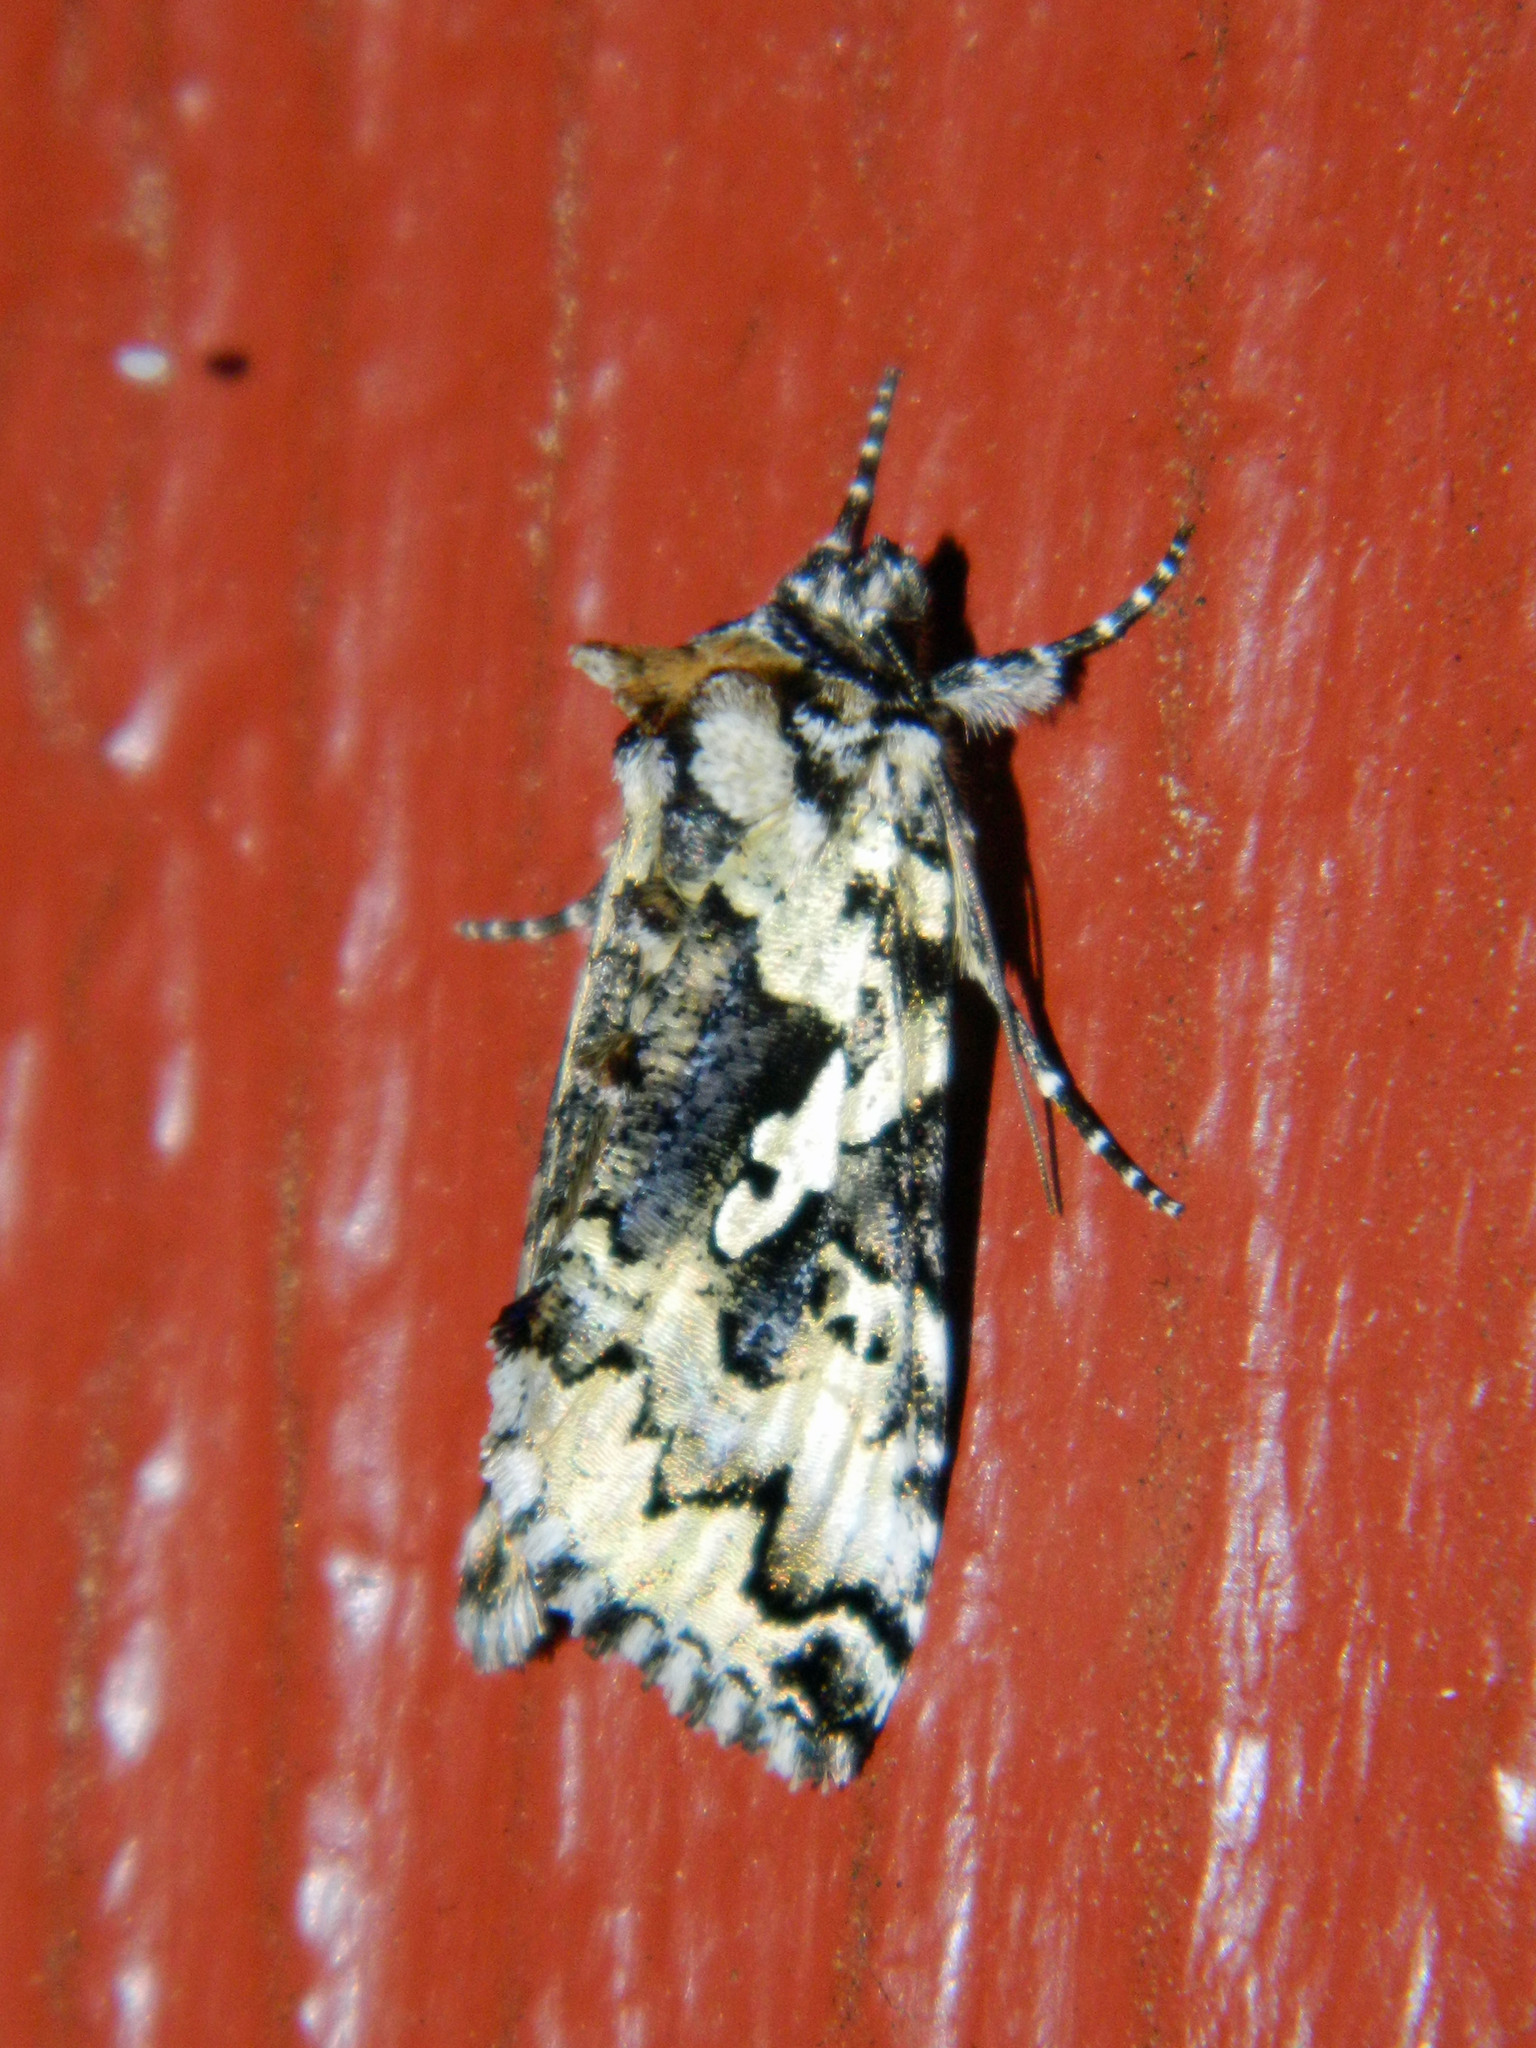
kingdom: Animalia
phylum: Arthropoda
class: Insecta
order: Lepidoptera
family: Noctuidae
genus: Syngrapha
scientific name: Syngrapha rectangula
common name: Angulated cutworm
